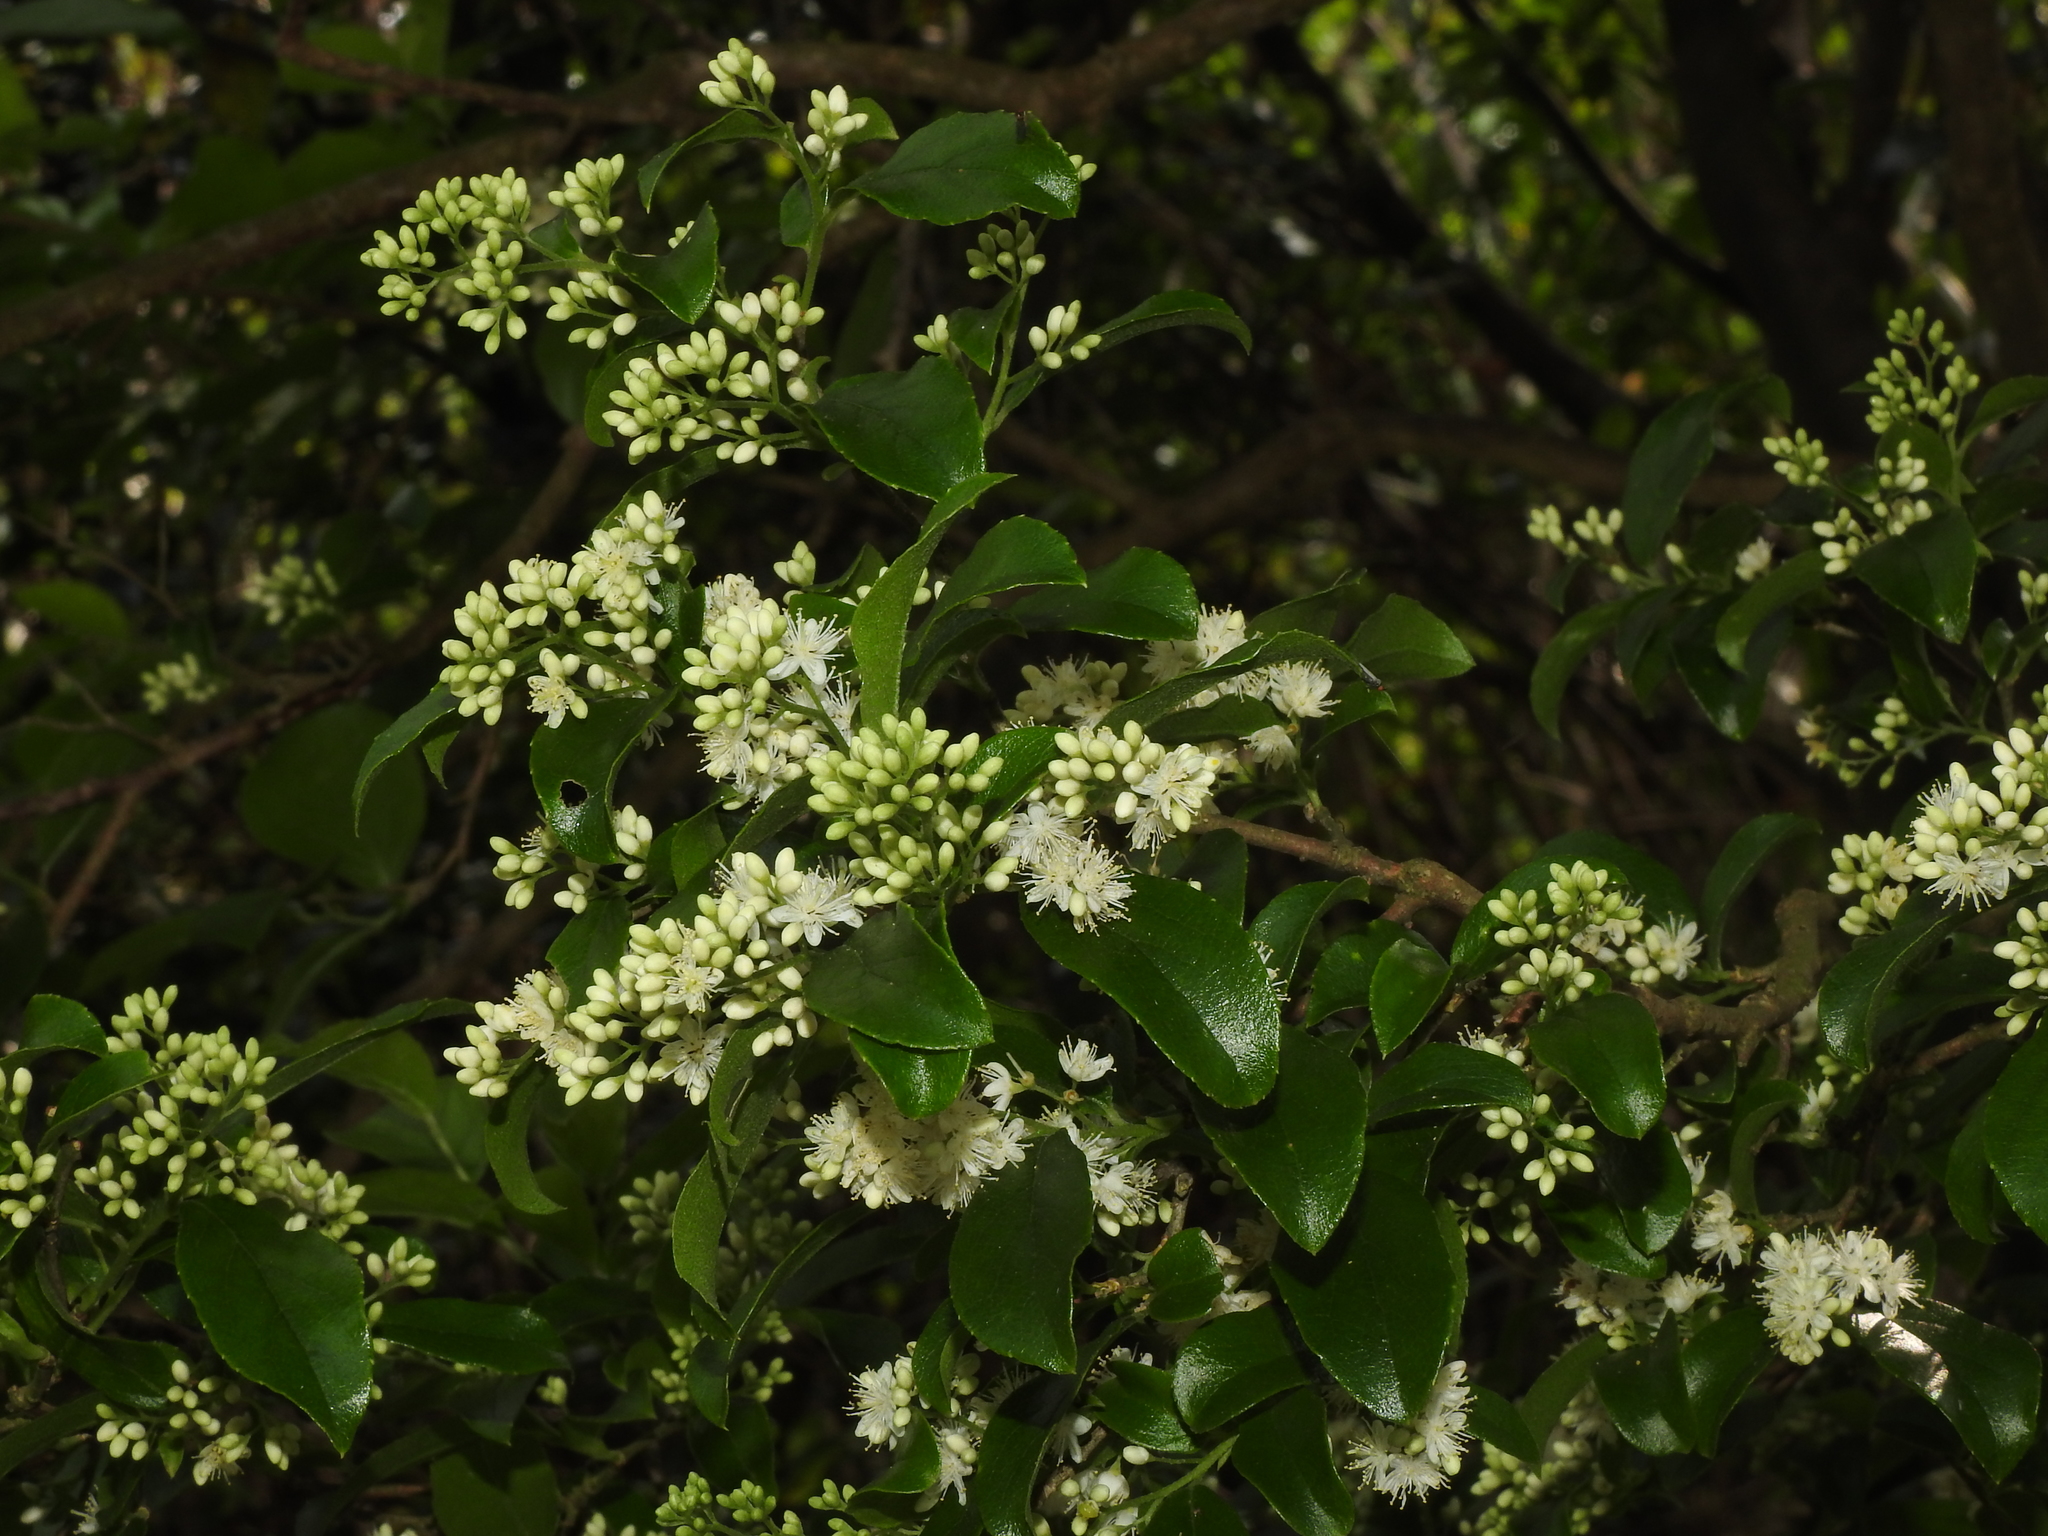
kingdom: Plantae
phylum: Tracheophyta
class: Magnoliopsida
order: Ericales
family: Symplocaceae
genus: Symplocos
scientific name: Symplocos paniculata
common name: Sapphire-berry
